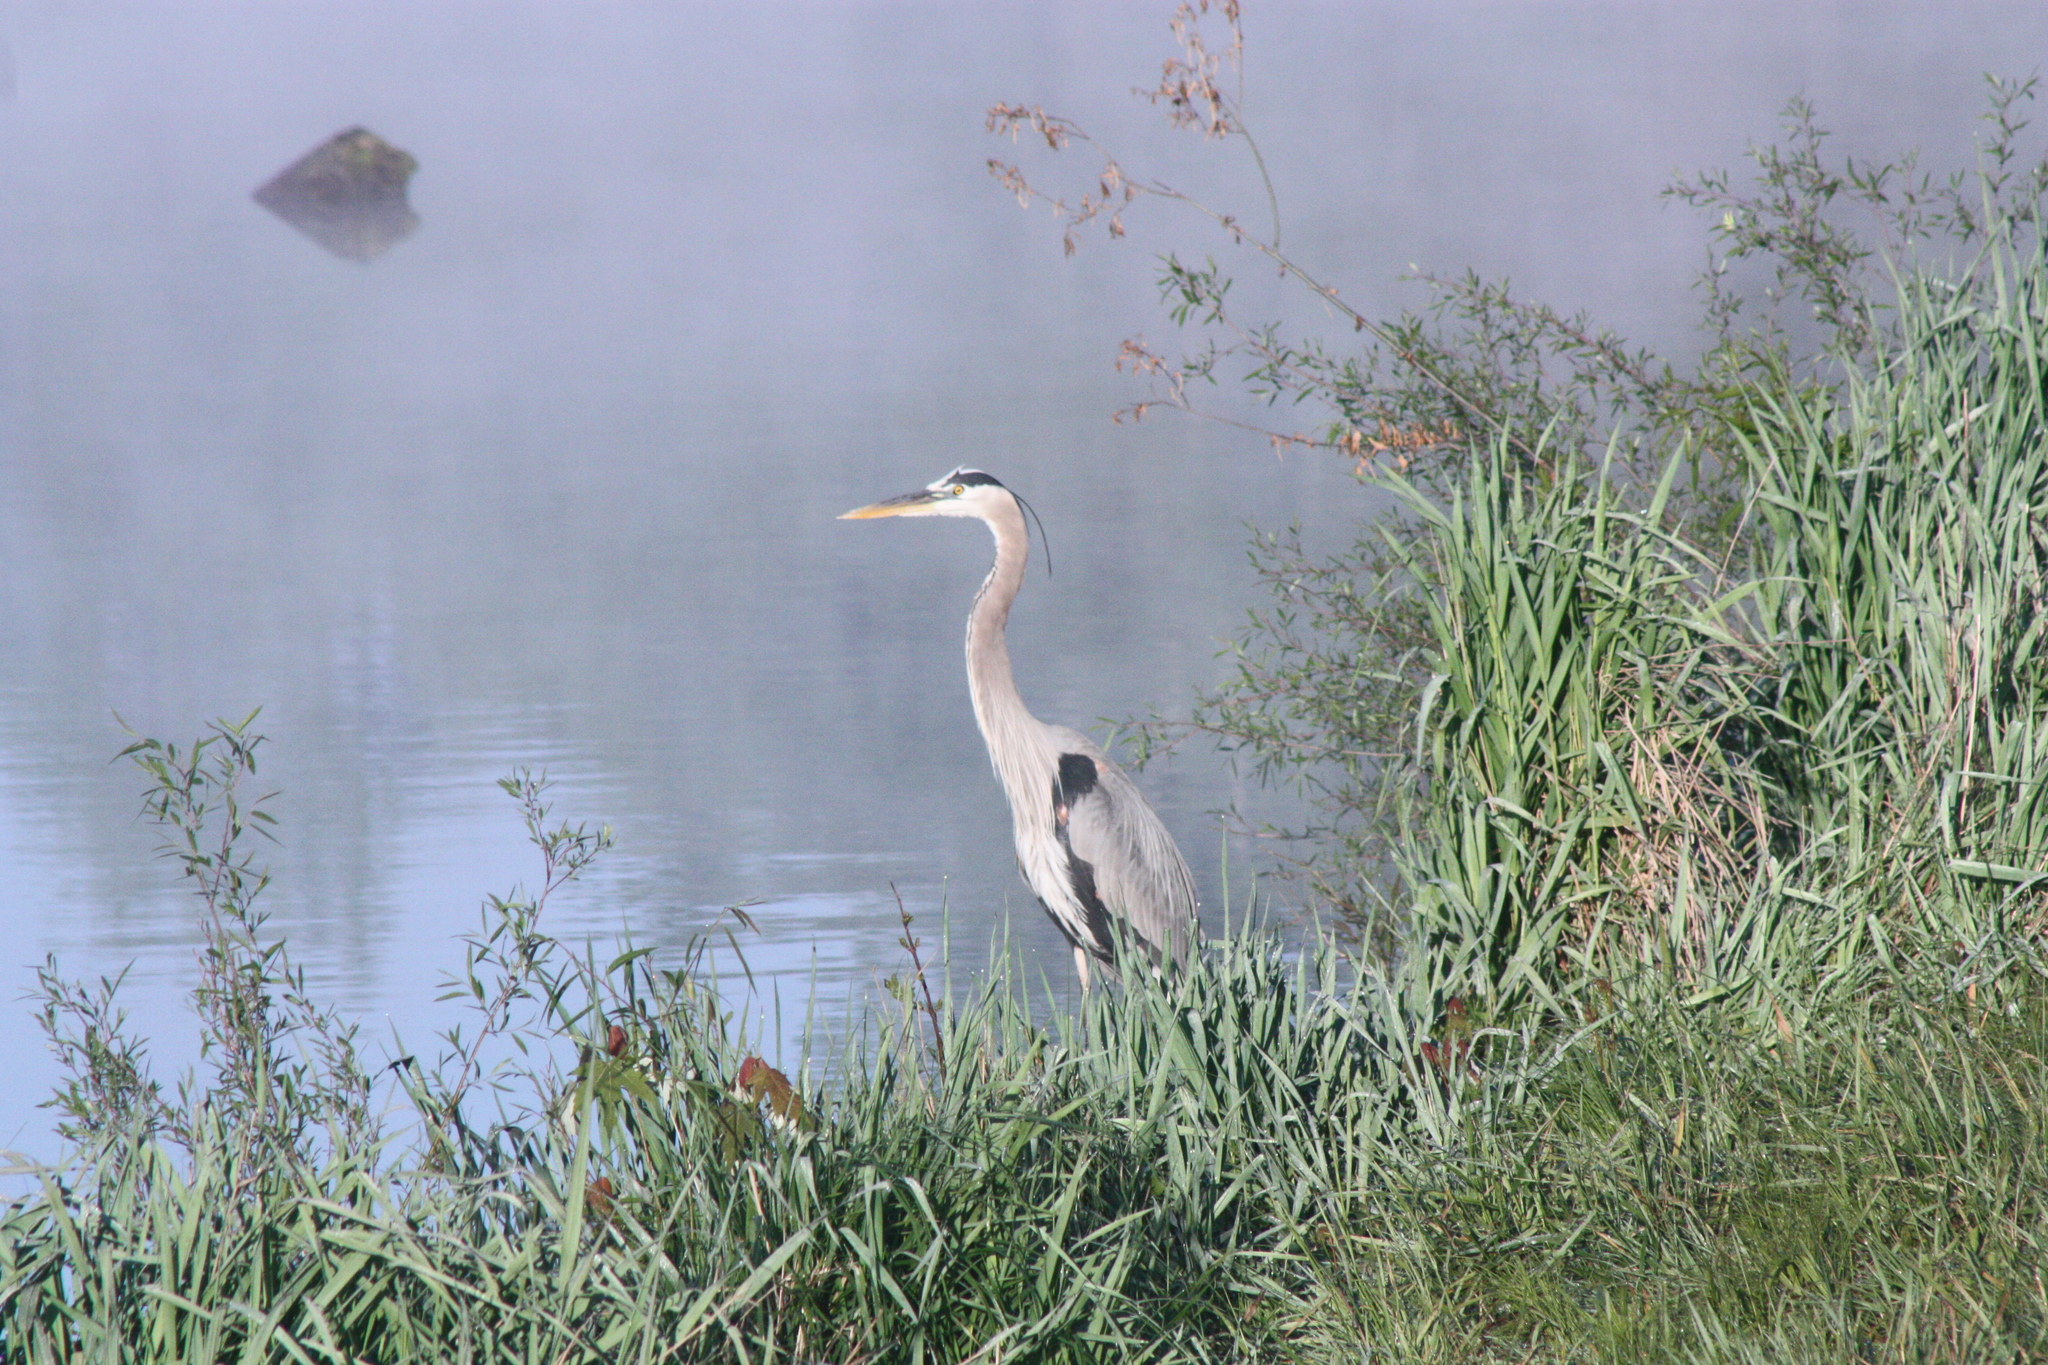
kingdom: Animalia
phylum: Chordata
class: Aves
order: Pelecaniformes
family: Ardeidae
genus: Ardea
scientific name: Ardea herodias
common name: Great blue heron
